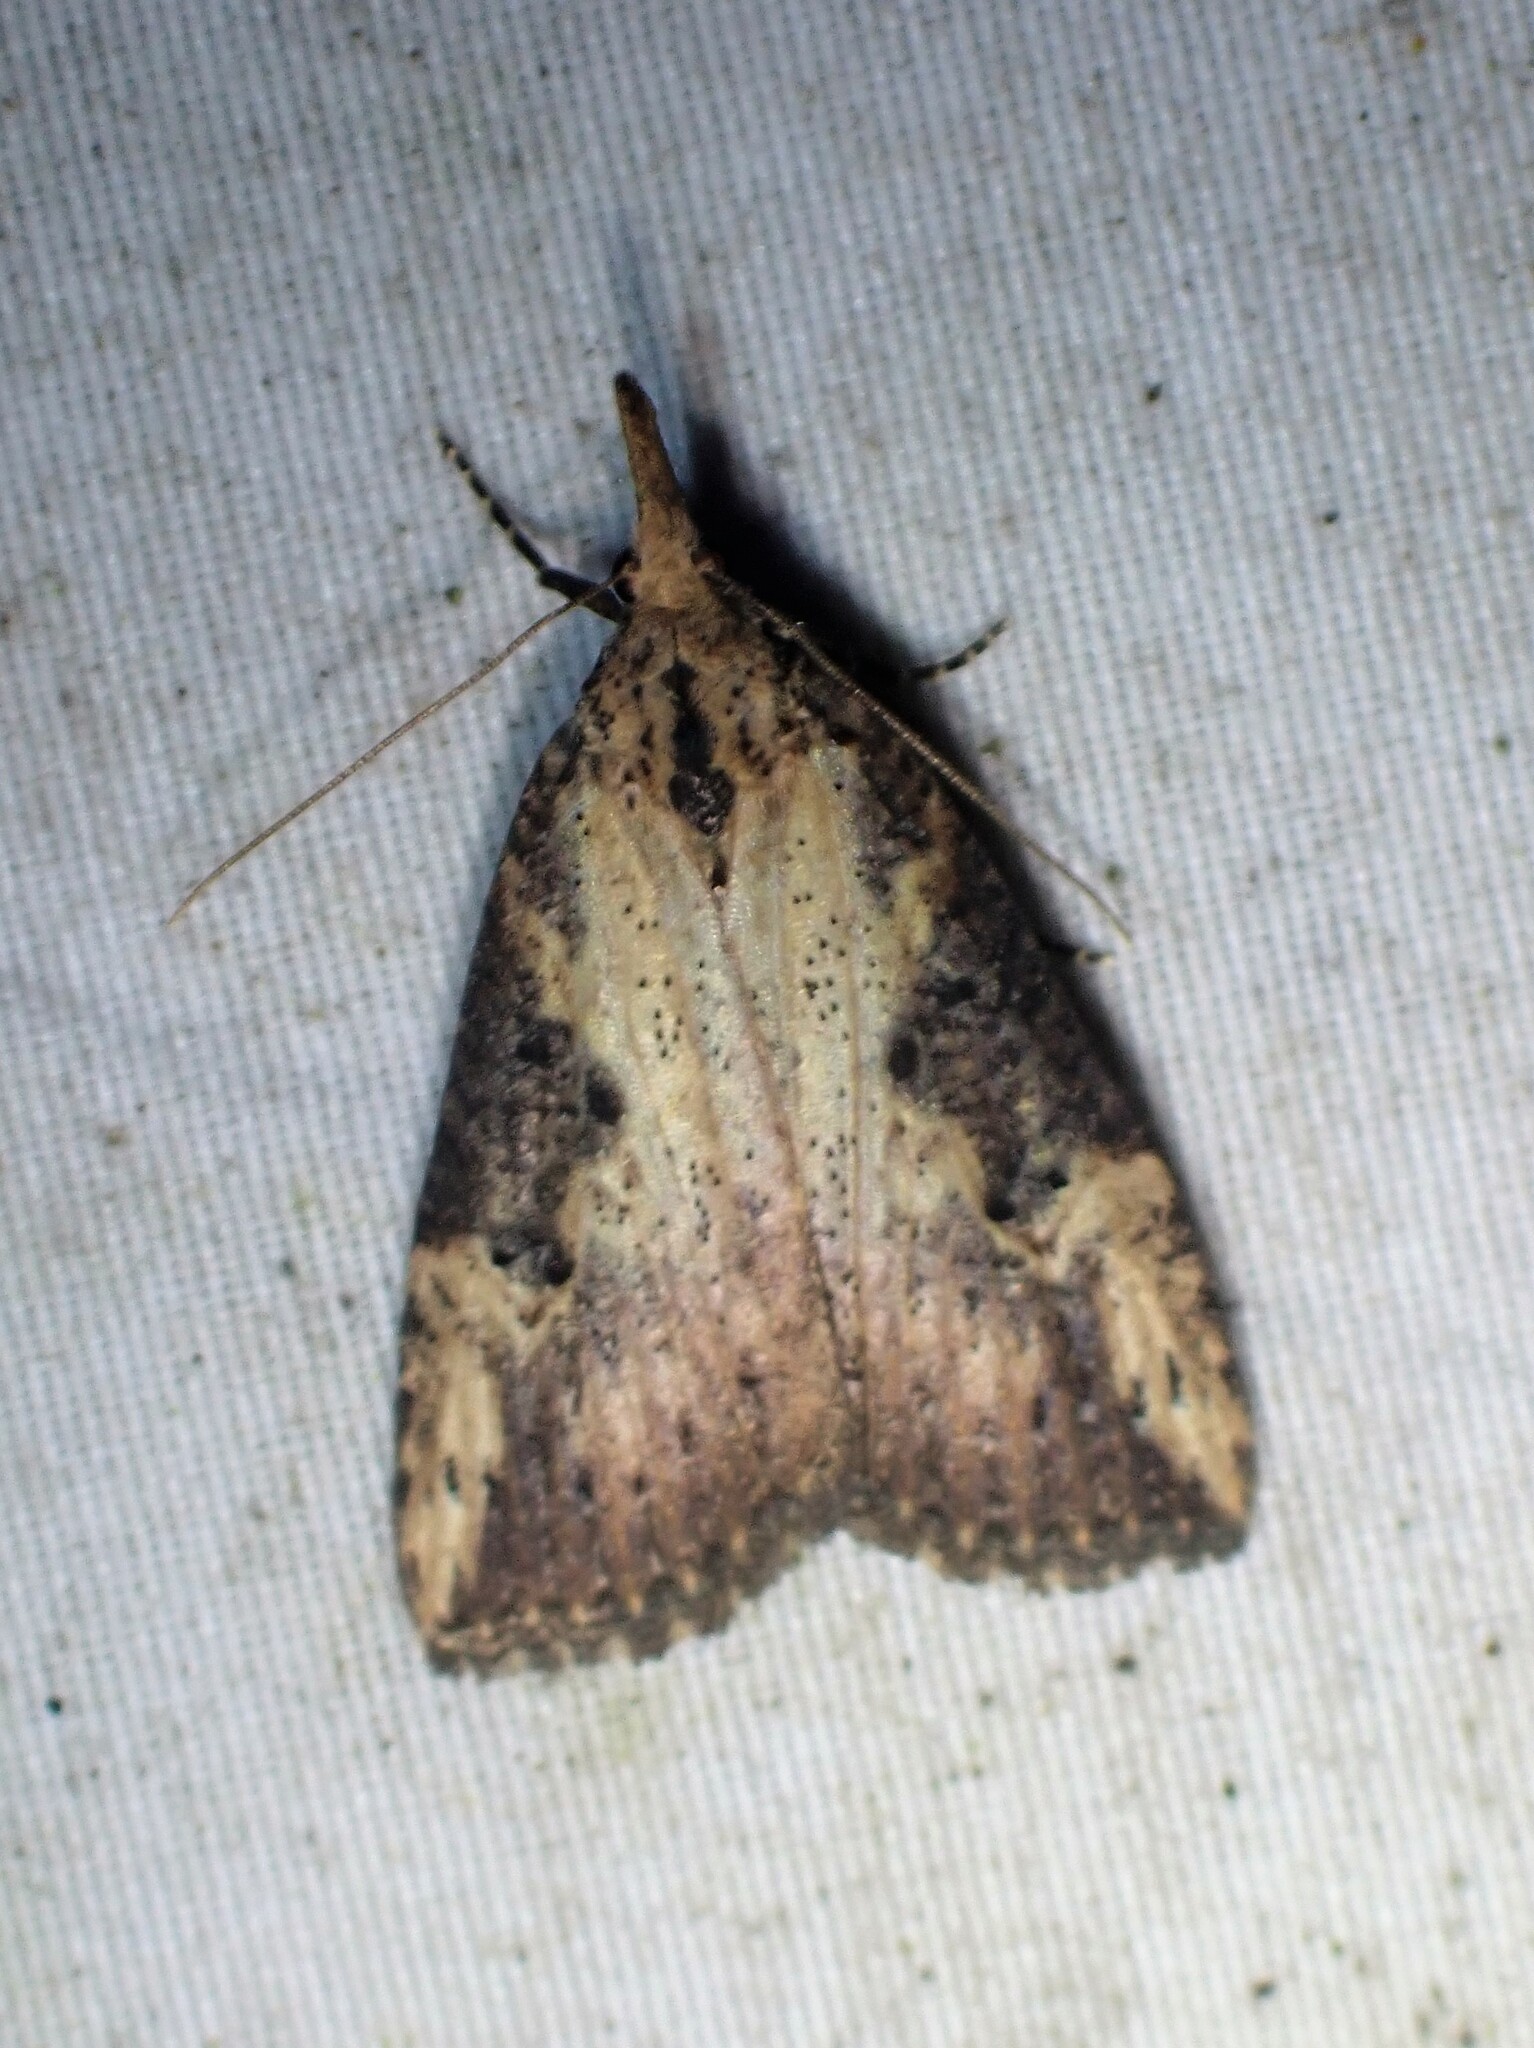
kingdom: Animalia
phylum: Arthropoda
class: Insecta
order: Lepidoptera
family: Erebidae
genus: Hypena
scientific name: Hypena humuli
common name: Hop vine snout
